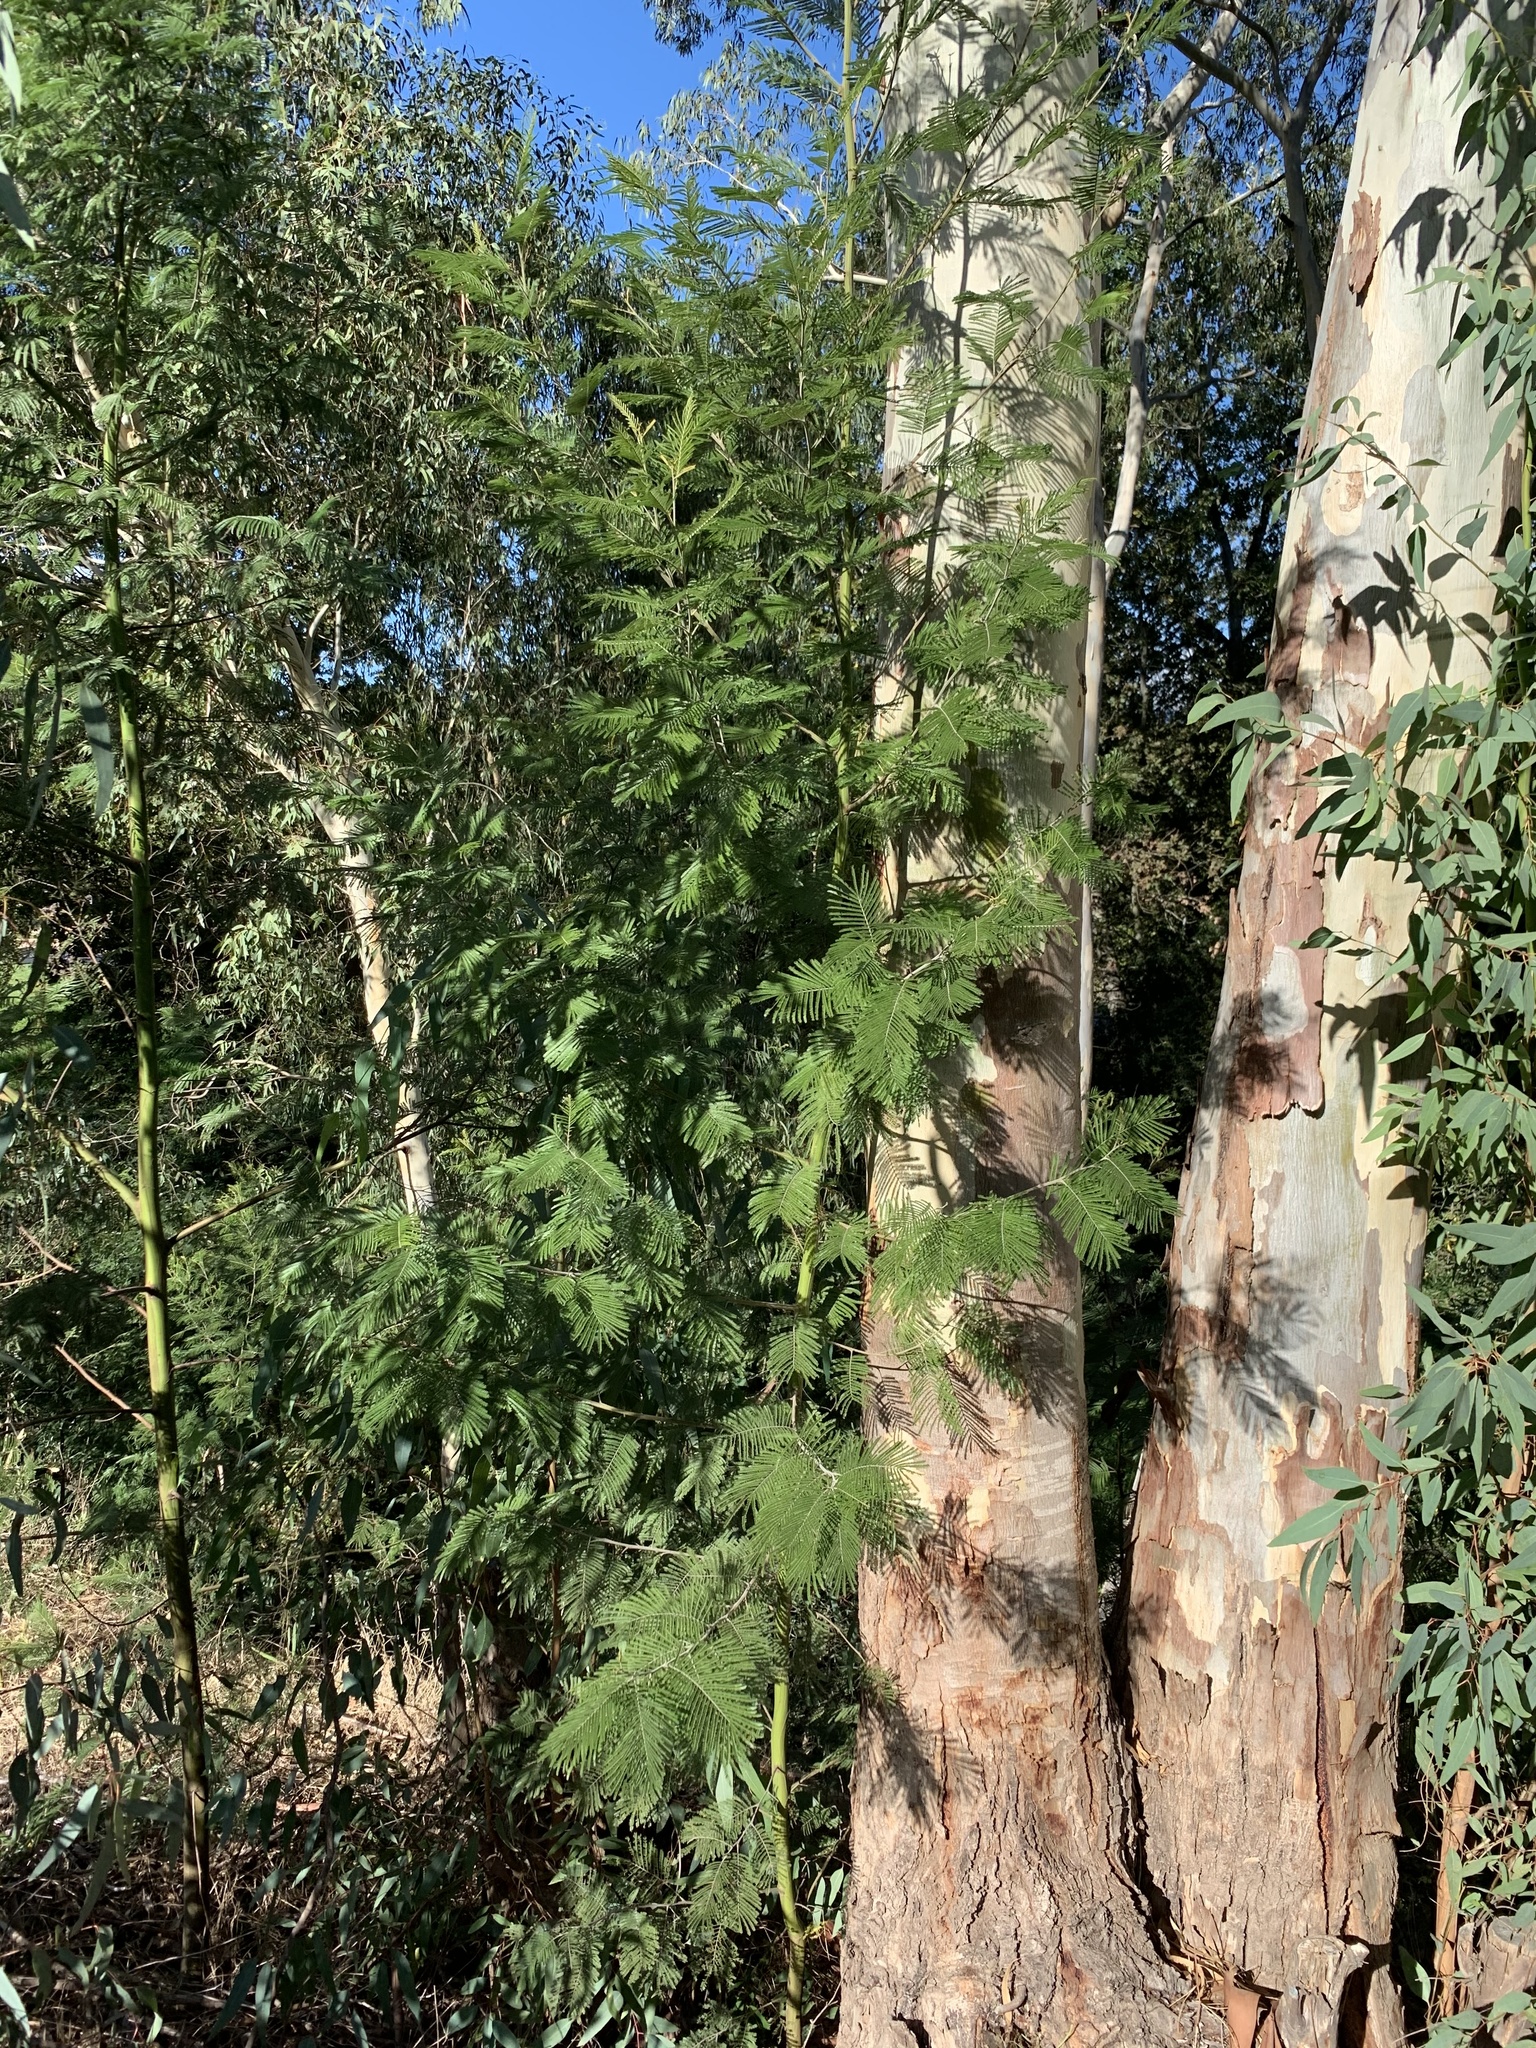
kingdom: Plantae
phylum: Tracheophyta
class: Magnoliopsida
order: Fabales
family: Fabaceae
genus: Acacia
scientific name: Acacia mearnsii
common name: Black wattle
